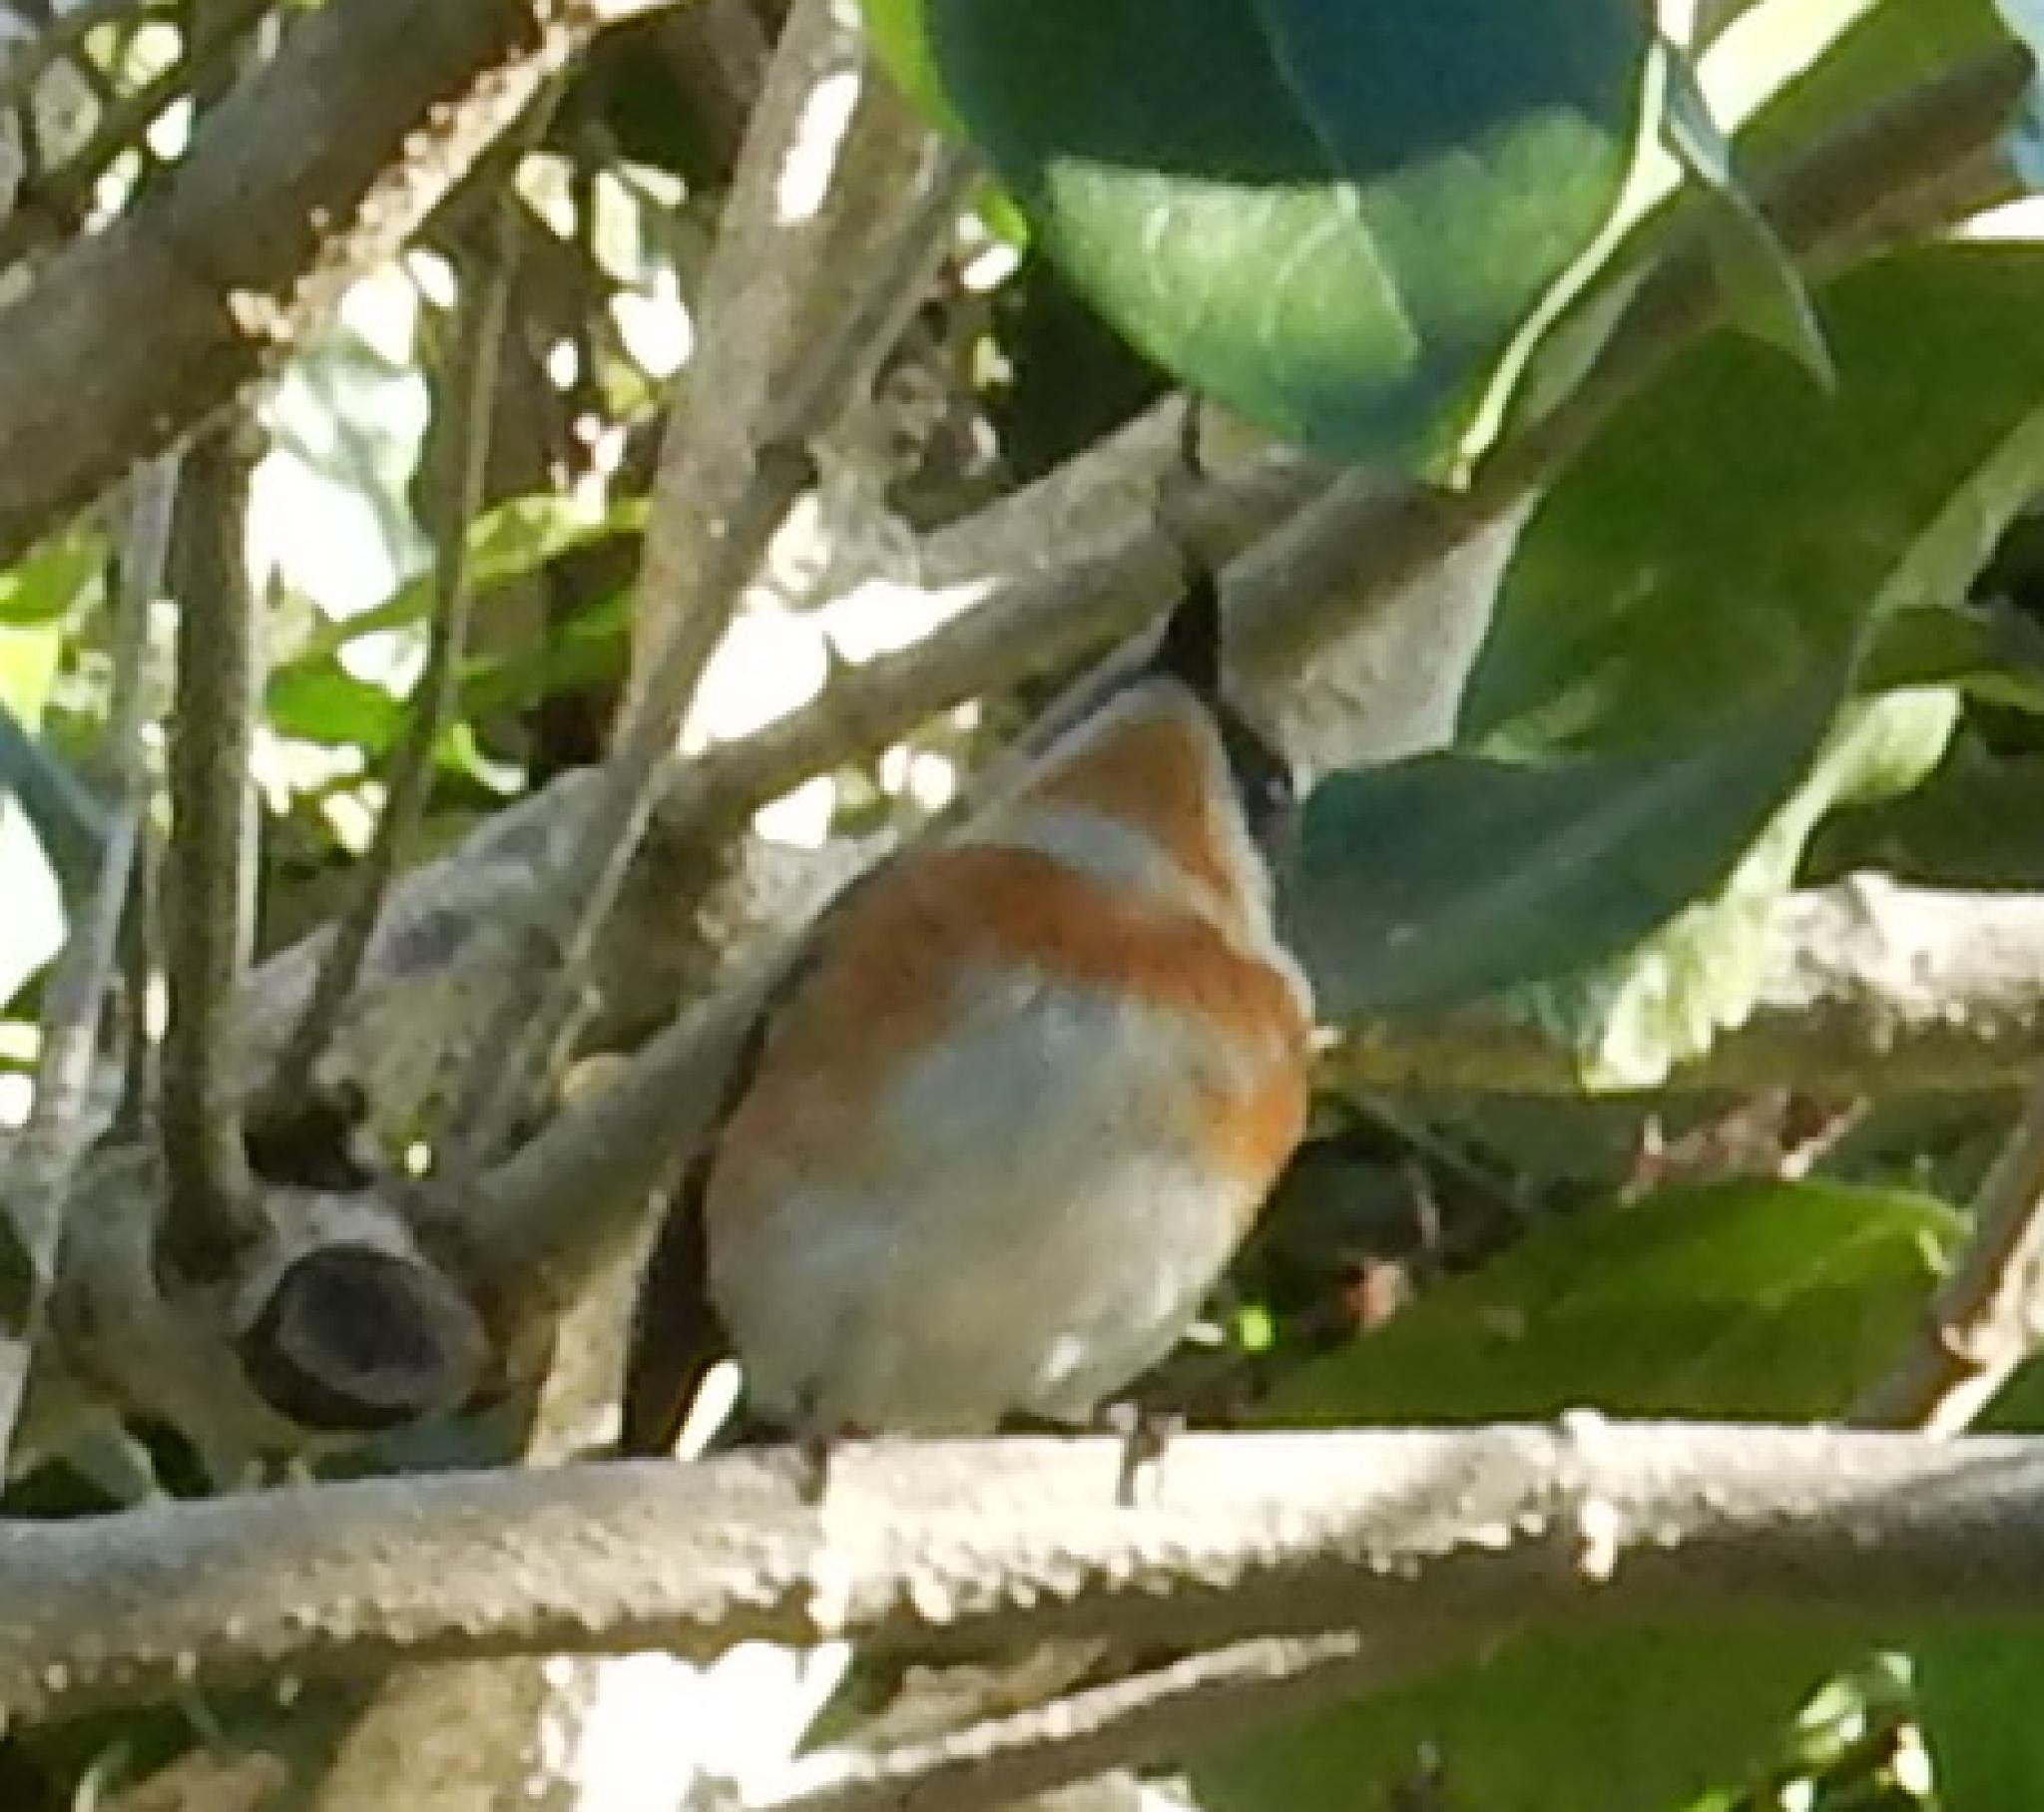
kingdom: Animalia
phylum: Chordata
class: Aves
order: Passeriformes
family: Platysteiridae
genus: Batis
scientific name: Batis capensis
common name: Cape batis
